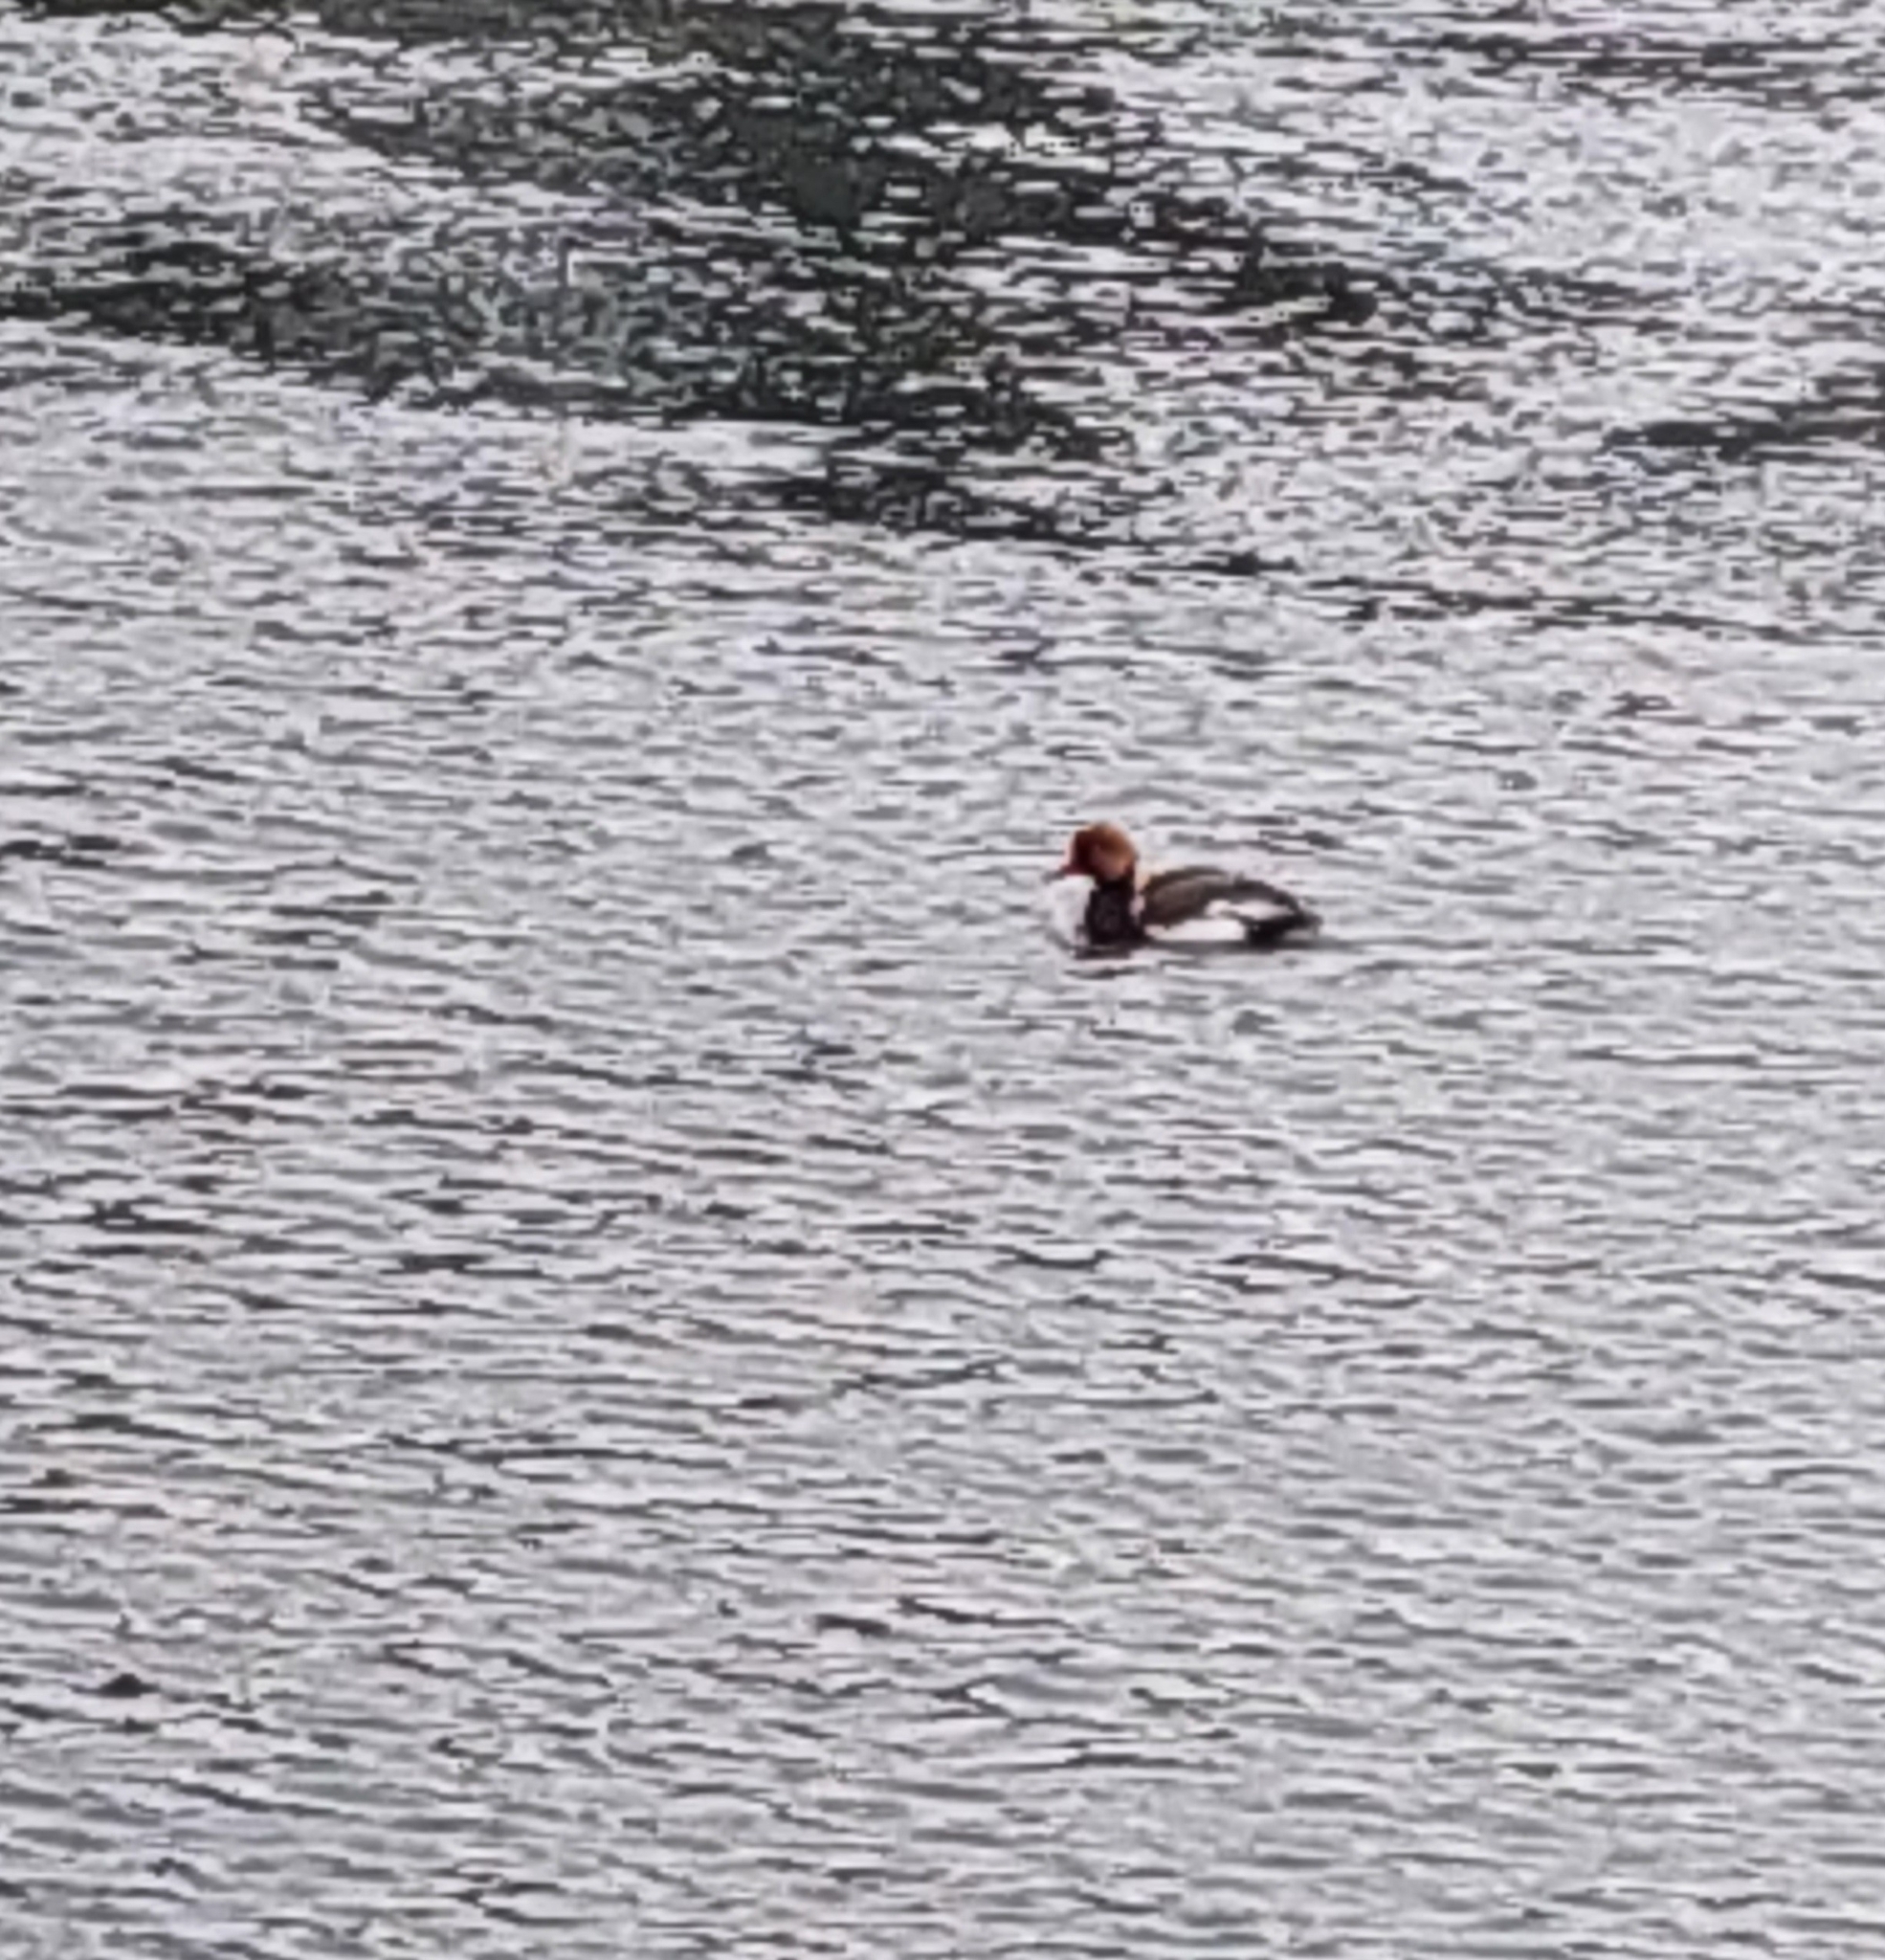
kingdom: Animalia
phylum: Chordata
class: Aves
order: Anseriformes
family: Anatidae
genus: Netta
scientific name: Netta rufina
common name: Red-crested pochard
